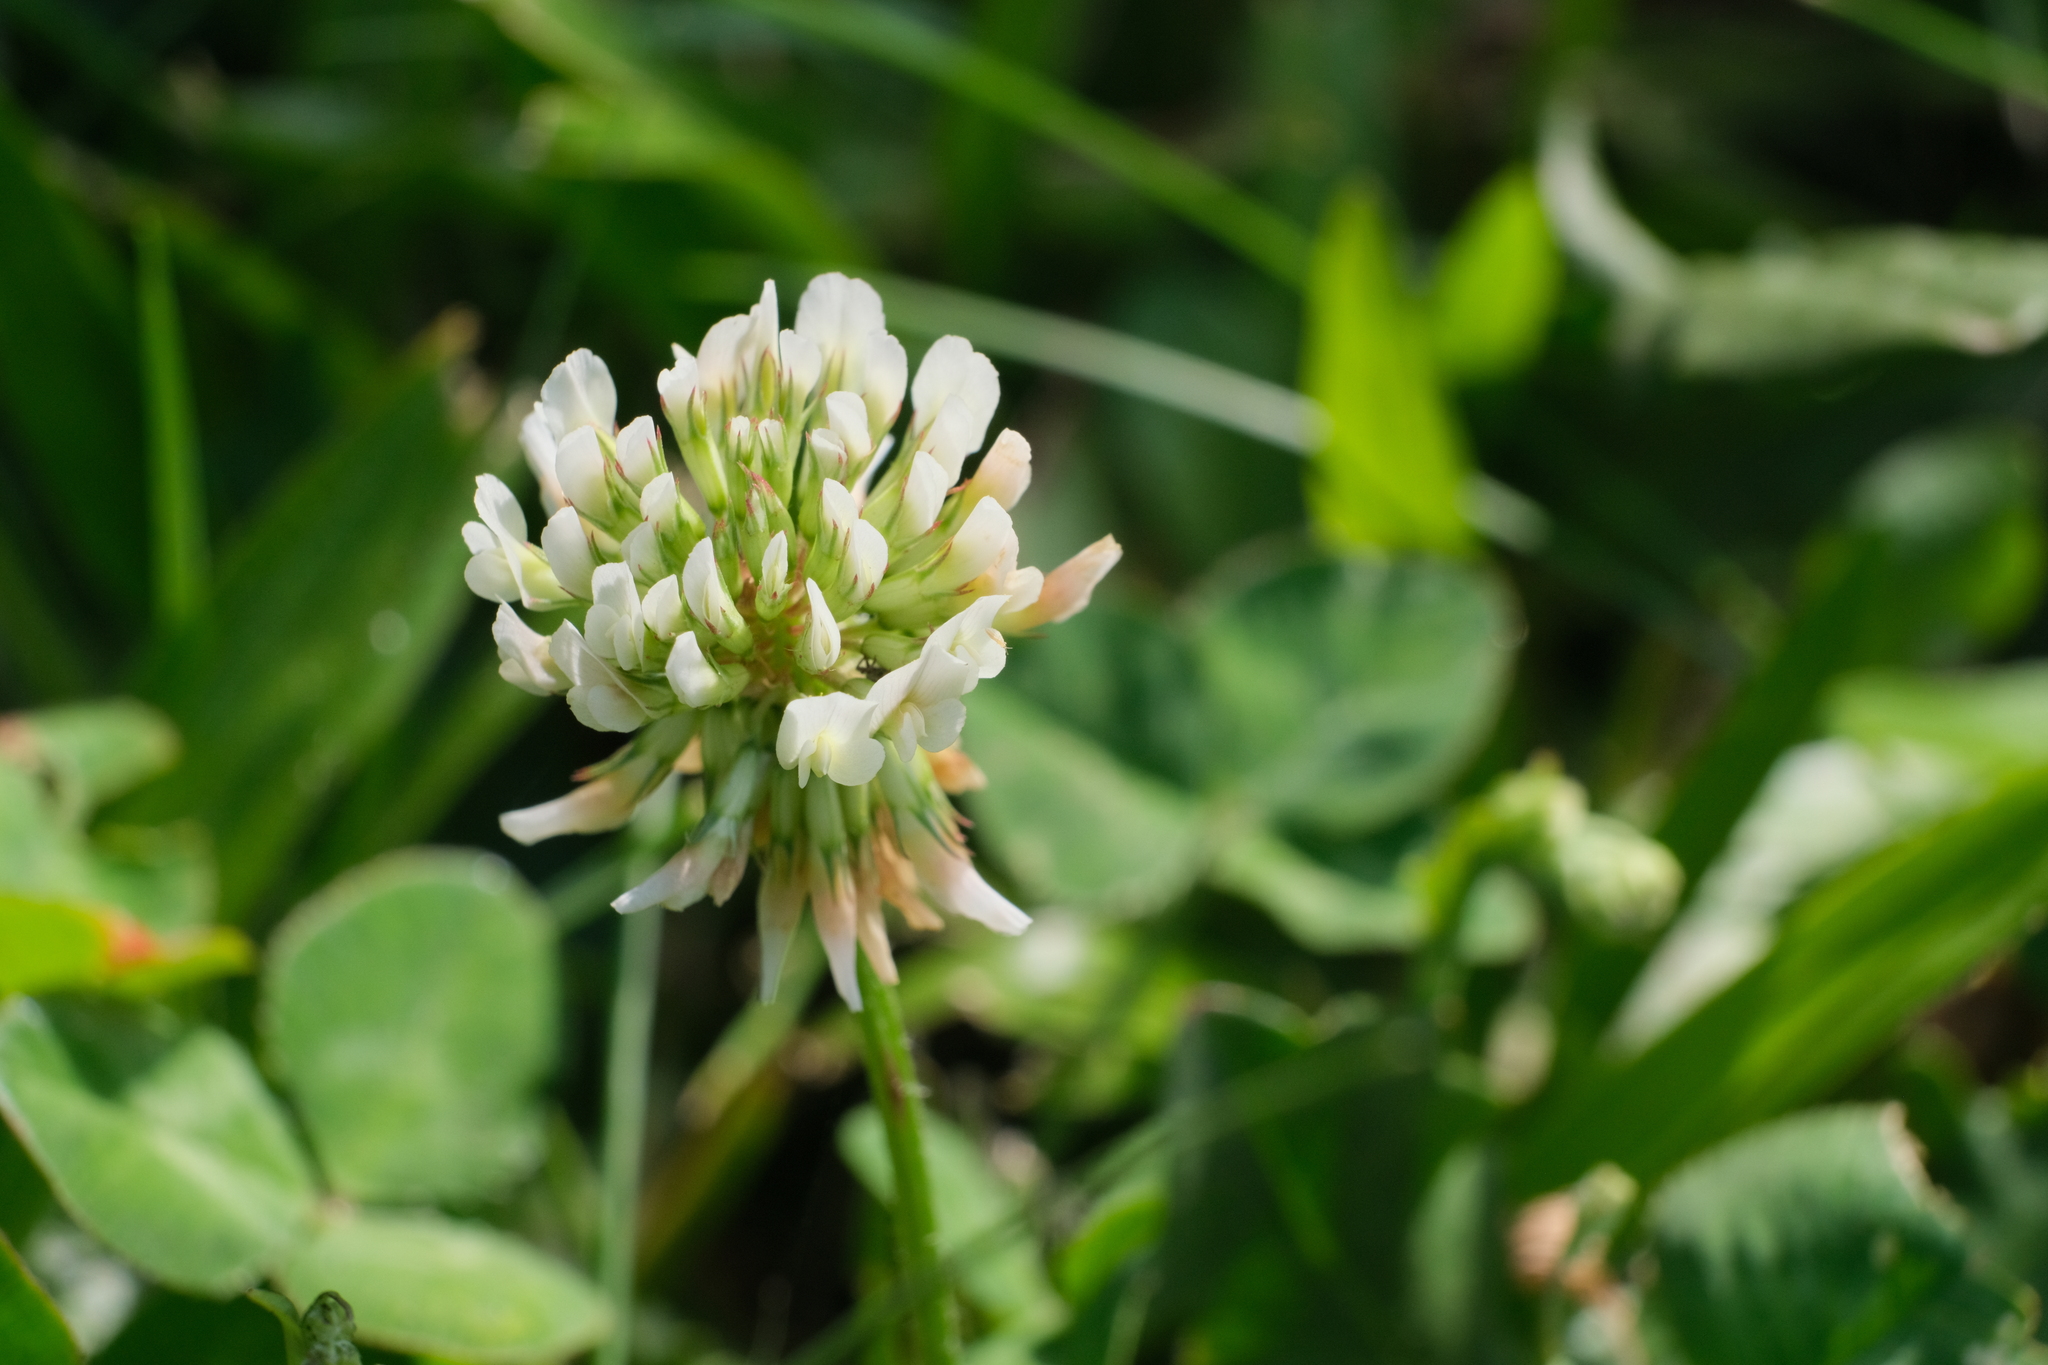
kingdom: Plantae
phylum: Tracheophyta
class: Magnoliopsida
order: Fabales
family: Fabaceae
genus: Trifolium
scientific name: Trifolium repens
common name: White clover
